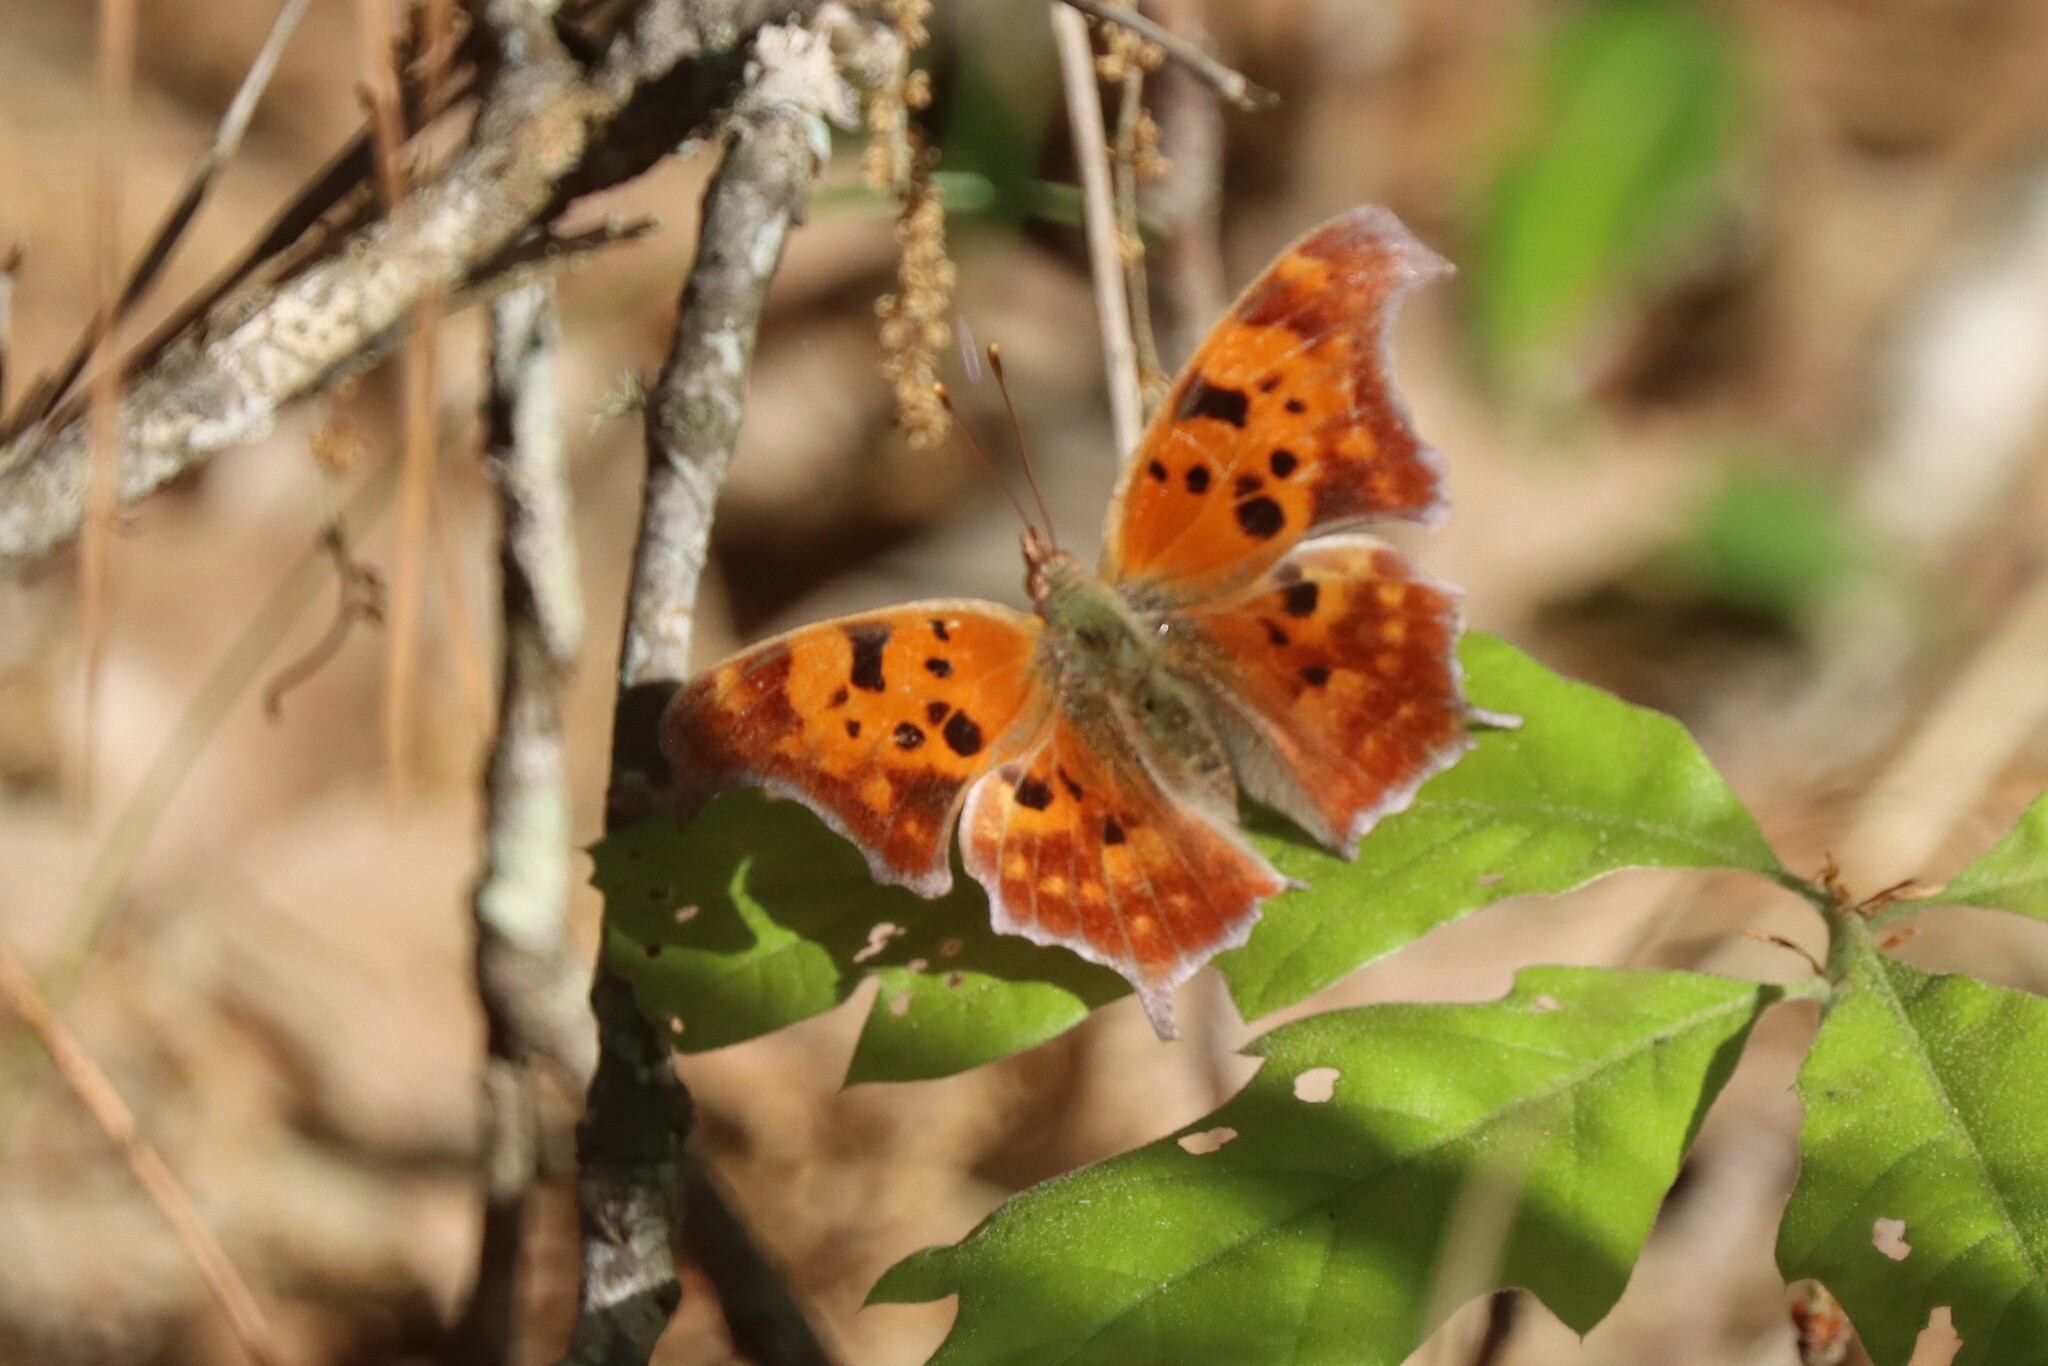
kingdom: Animalia
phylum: Arthropoda
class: Insecta
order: Lepidoptera
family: Nymphalidae
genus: Polygonia
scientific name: Polygonia interrogationis
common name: Question mark
